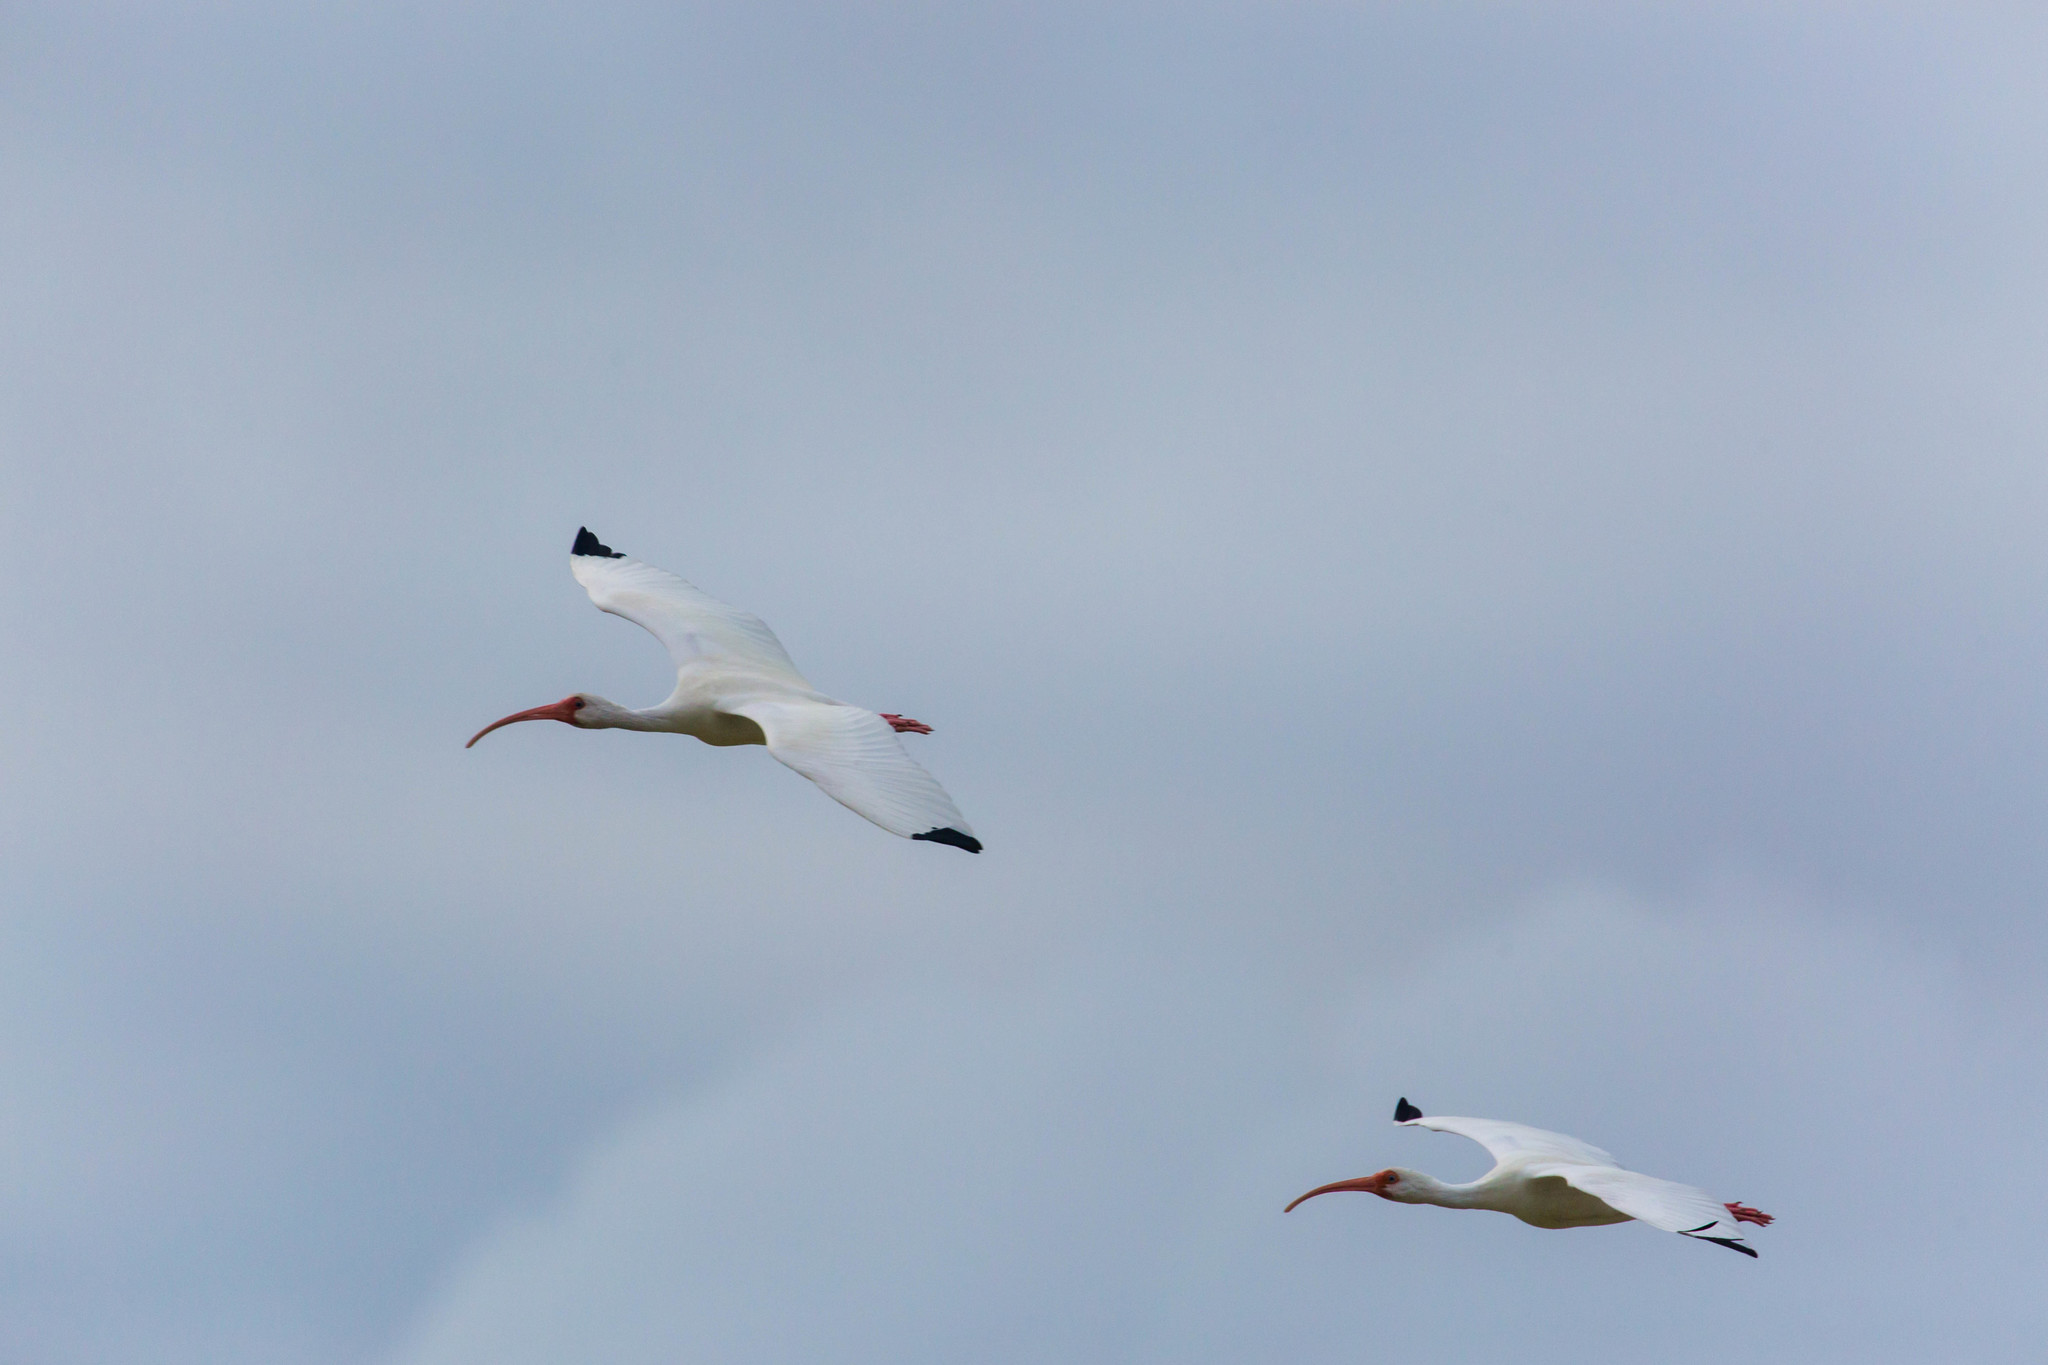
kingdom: Animalia
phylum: Chordata
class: Aves
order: Pelecaniformes
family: Threskiornithidae
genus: Eudocimus
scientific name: Eudocimus albus
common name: White ibis
